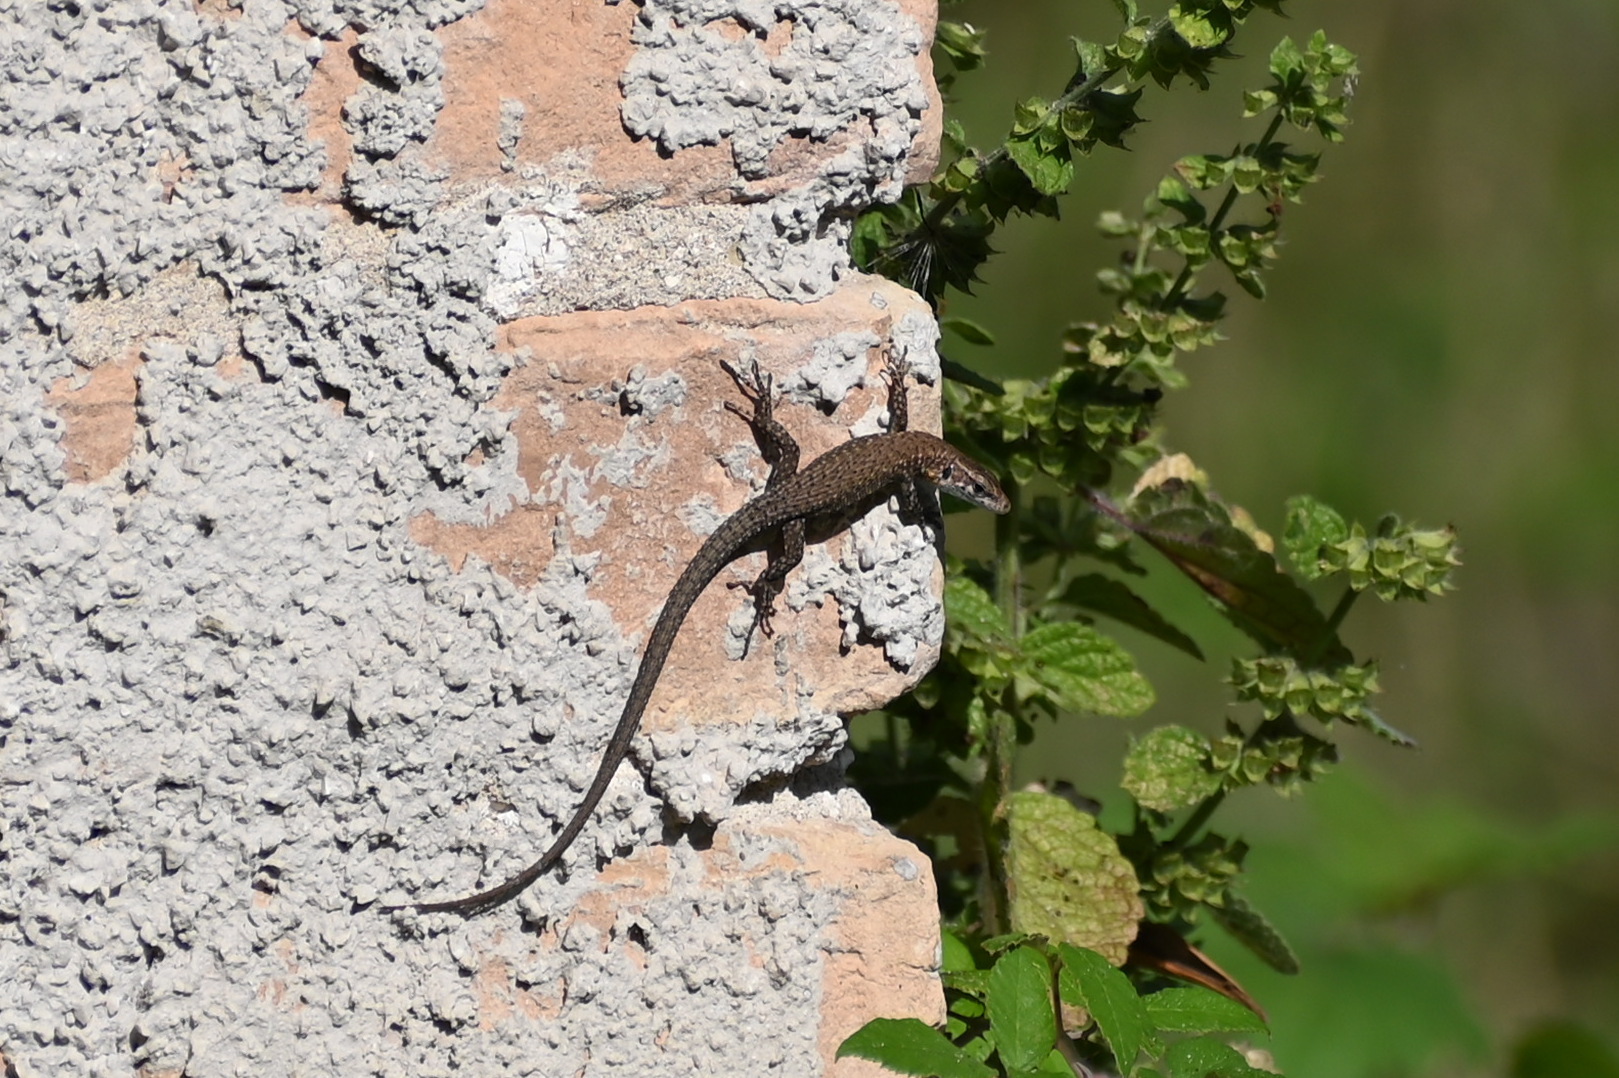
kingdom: Animalia
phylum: Chordata
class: Squamata
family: Lacertidae
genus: Algyroides
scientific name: Algyroides nigropunctatus
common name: Blue-throated keeled lizard
